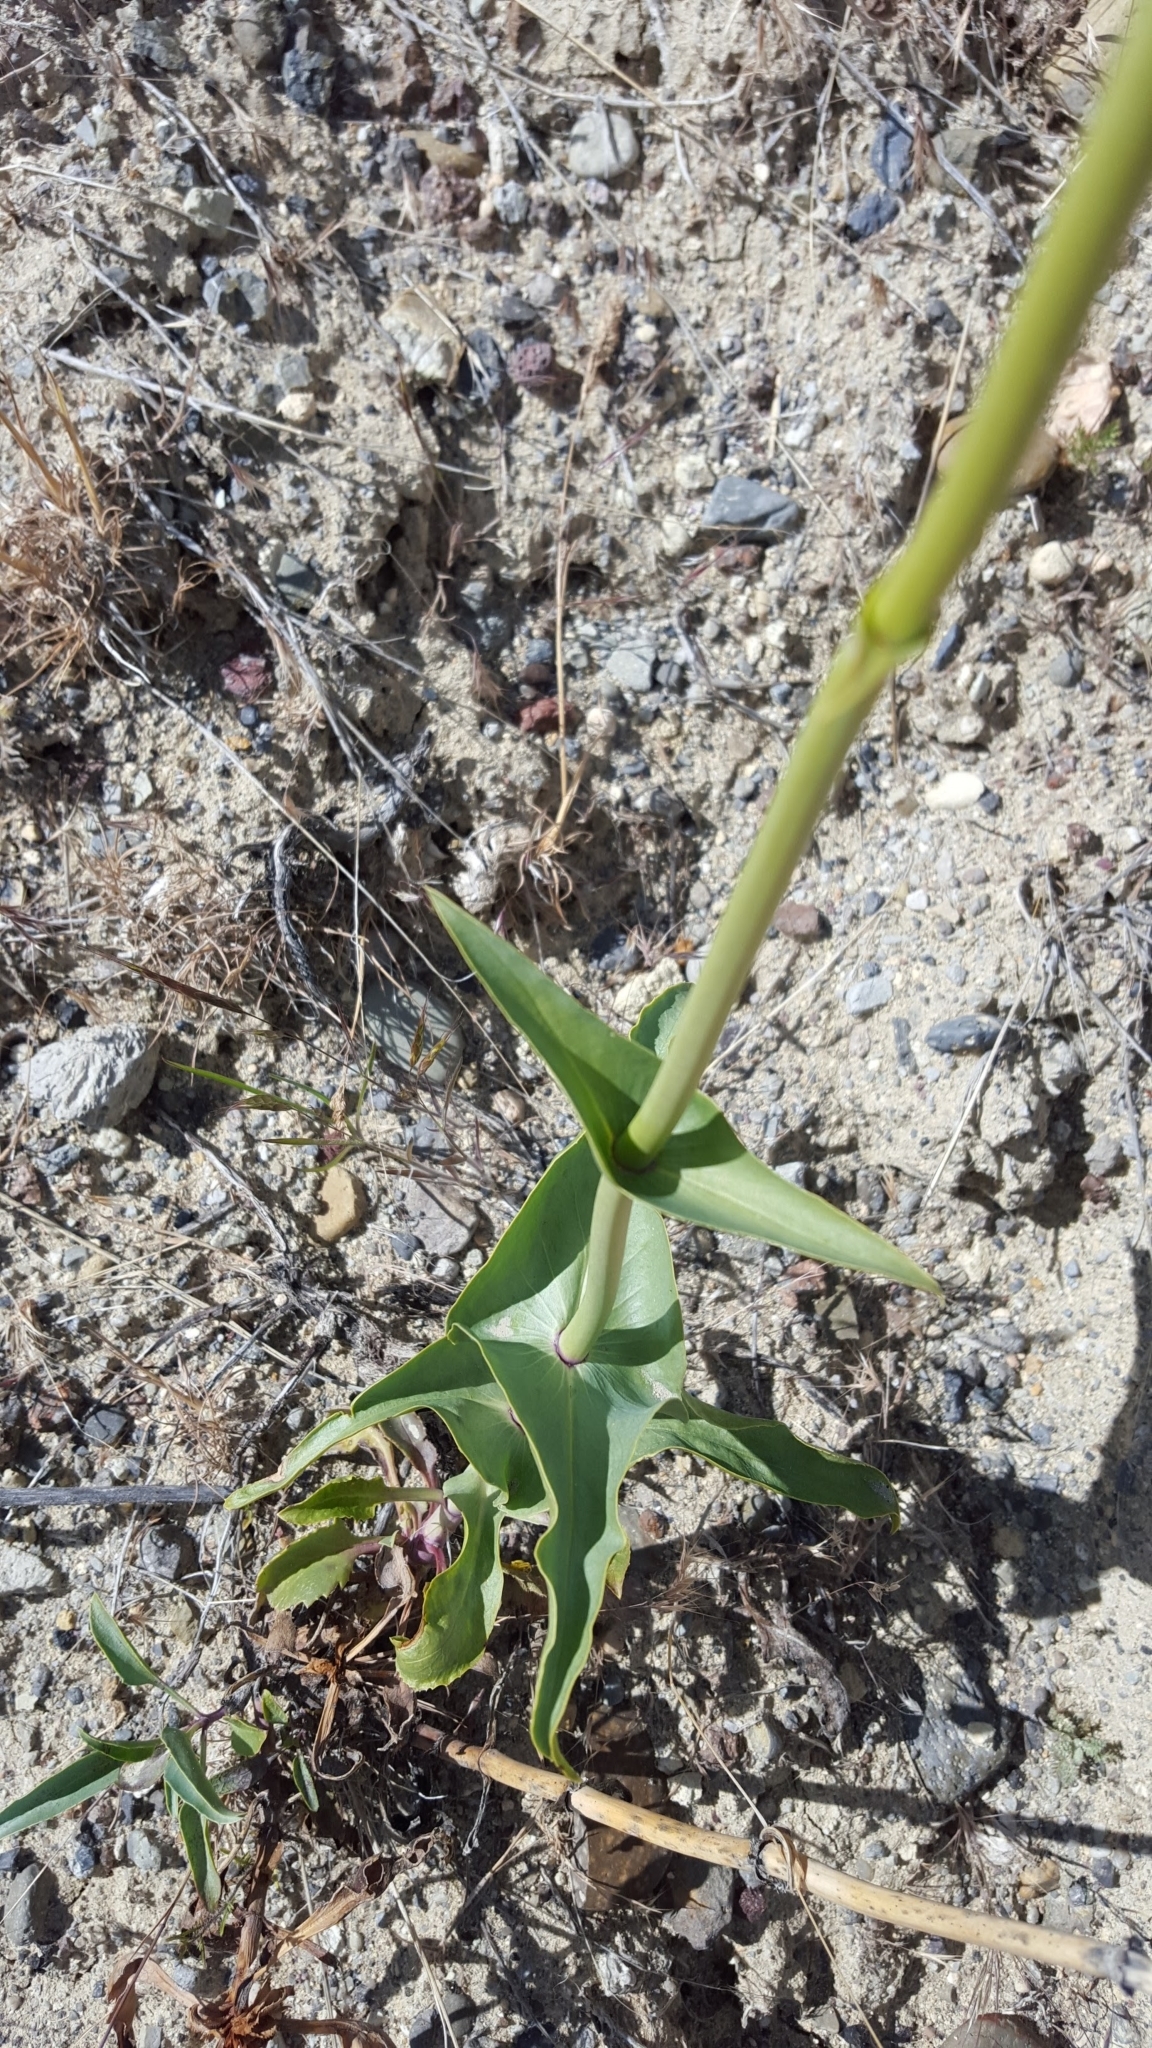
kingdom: Plantae
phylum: Tracheophyta
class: Magnoliopsida
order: Lamiales
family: Plantaginaceae
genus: Penstemon
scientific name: Penstemon palmeri
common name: Palmer penstemon
